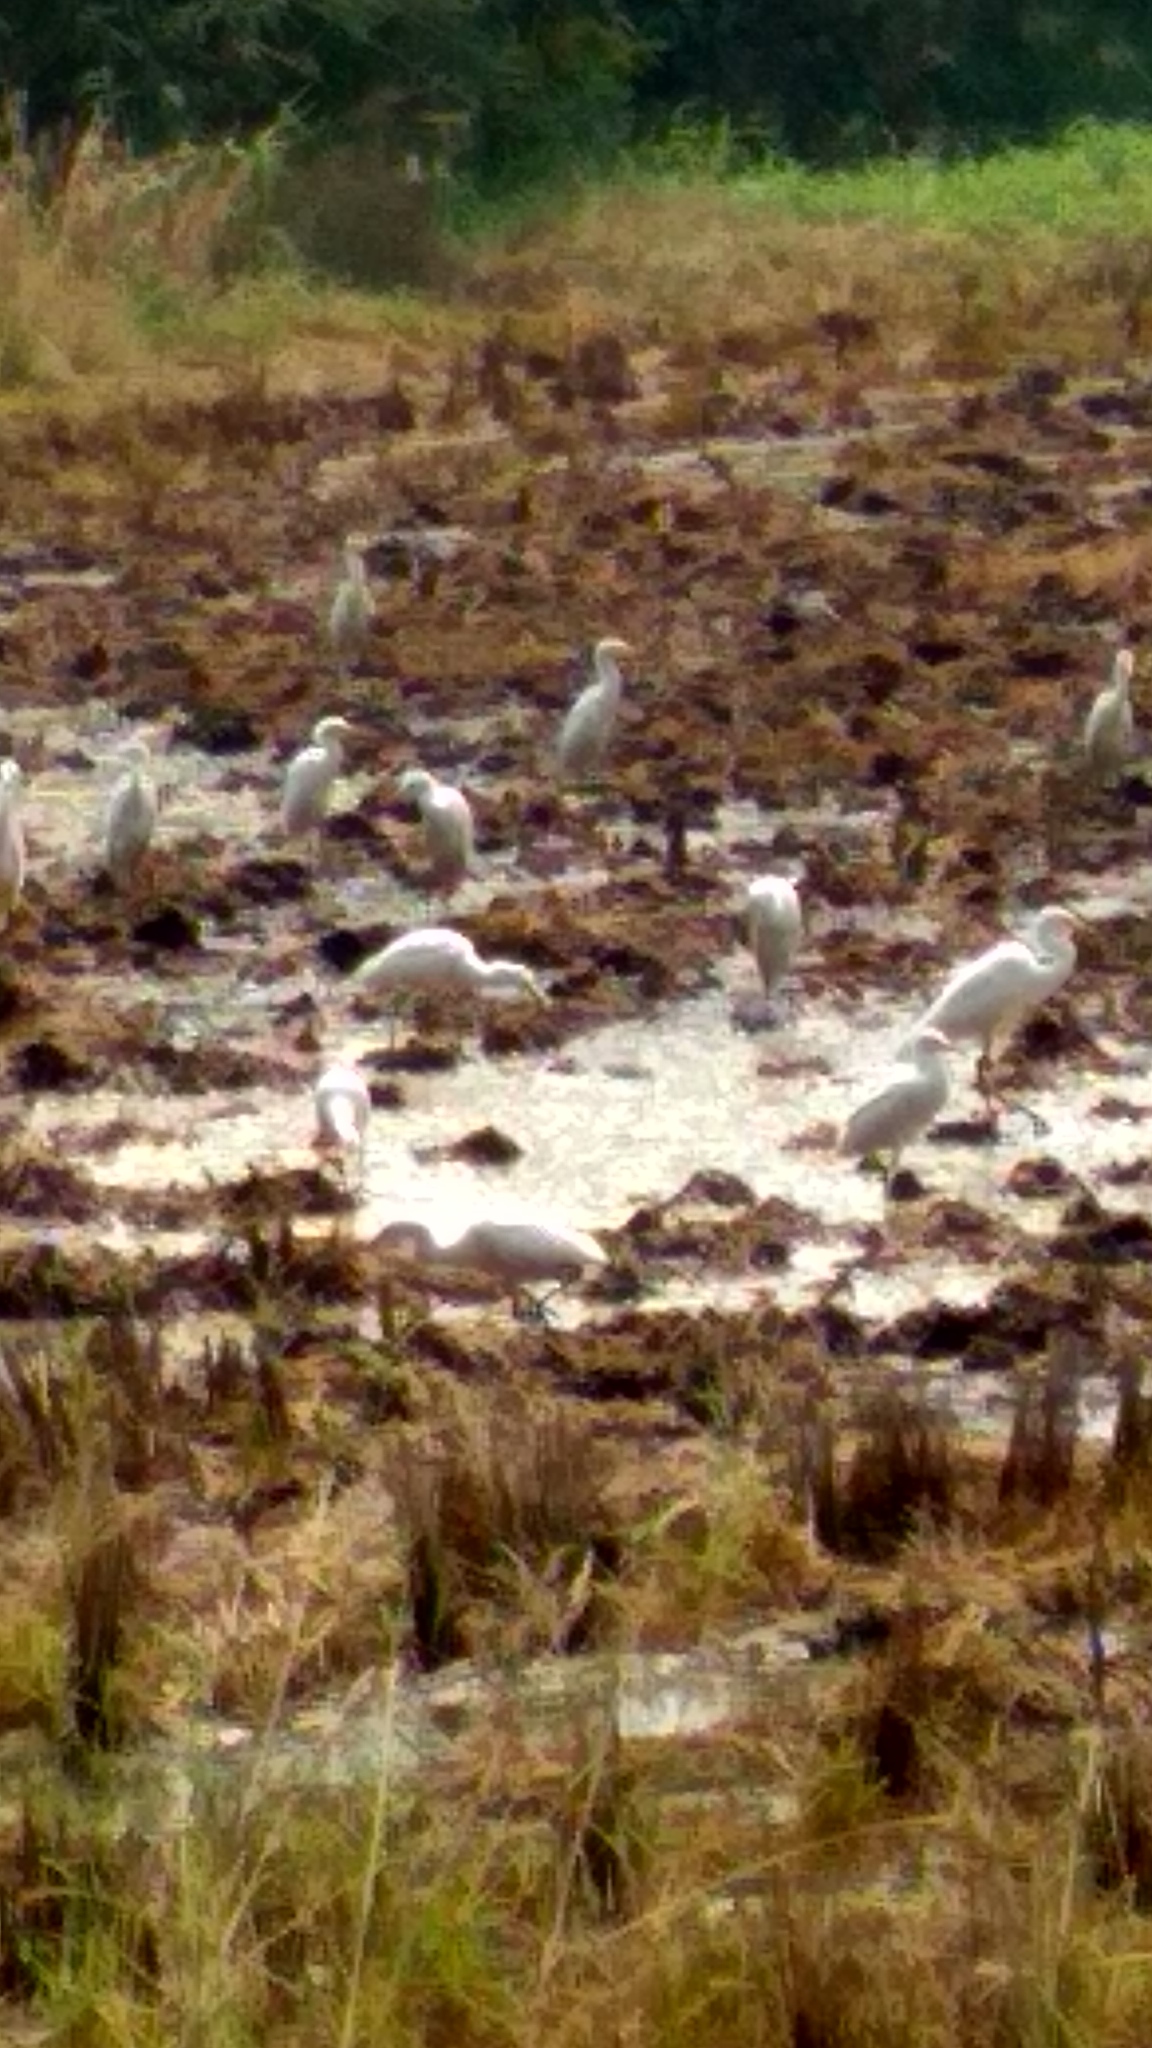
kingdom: Animalia
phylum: Chordata
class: Aves
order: Pelecaniformes
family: Ardeidae
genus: Bubulcus
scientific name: Bubulcus coromandus
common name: Eastern cattle egret
